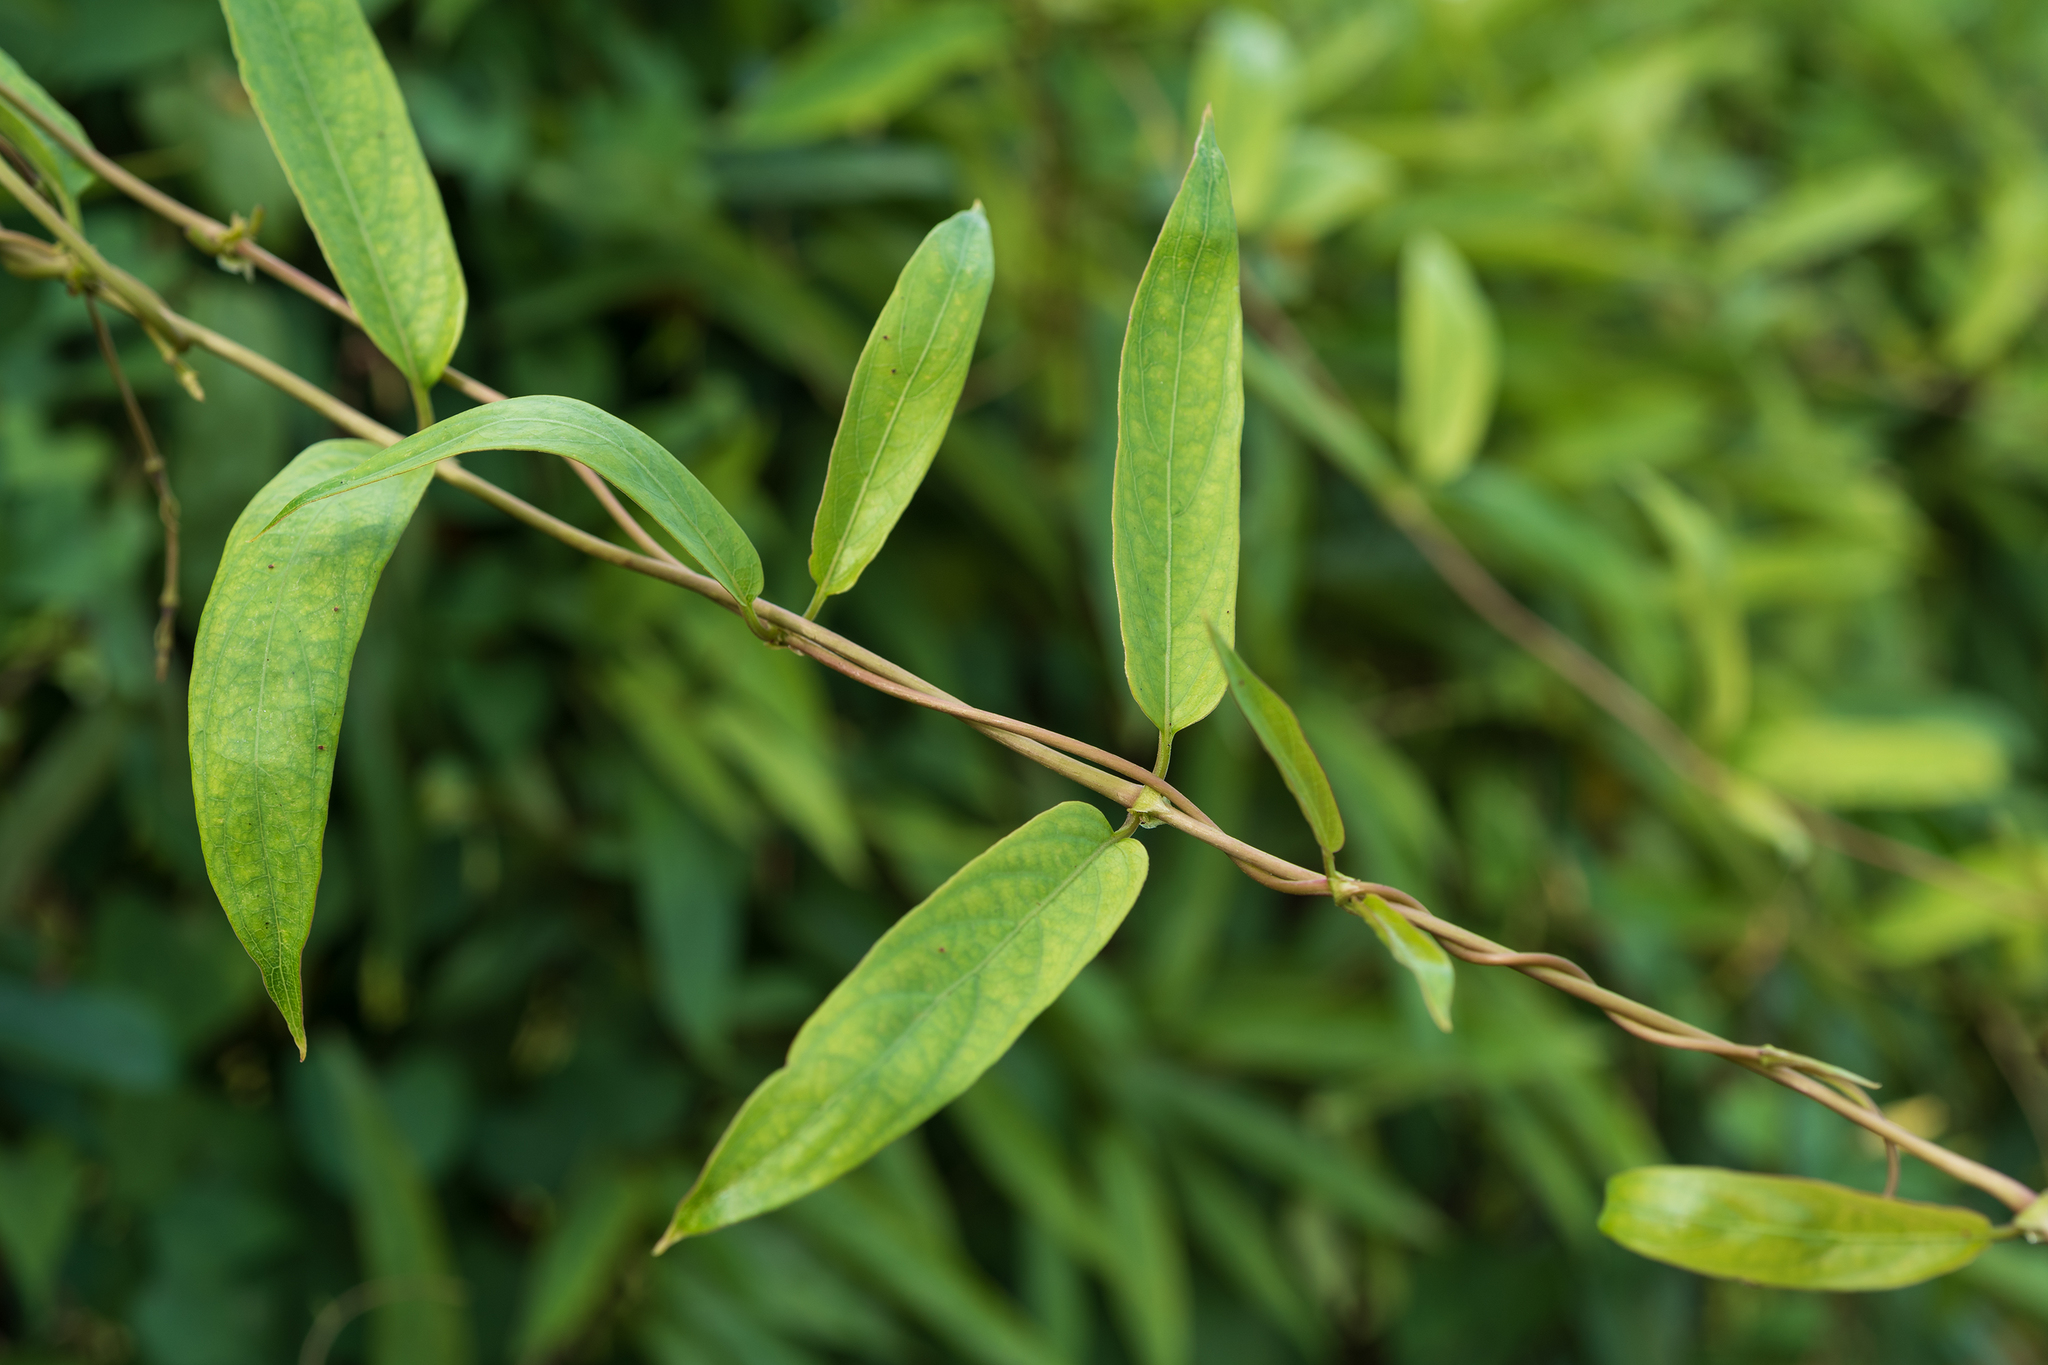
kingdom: Plantae
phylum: Tracheophyta
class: Magnoliopsida
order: Gentianales
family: Rubiaceae
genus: Paederia
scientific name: Paederia foetida
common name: Stinkvine
